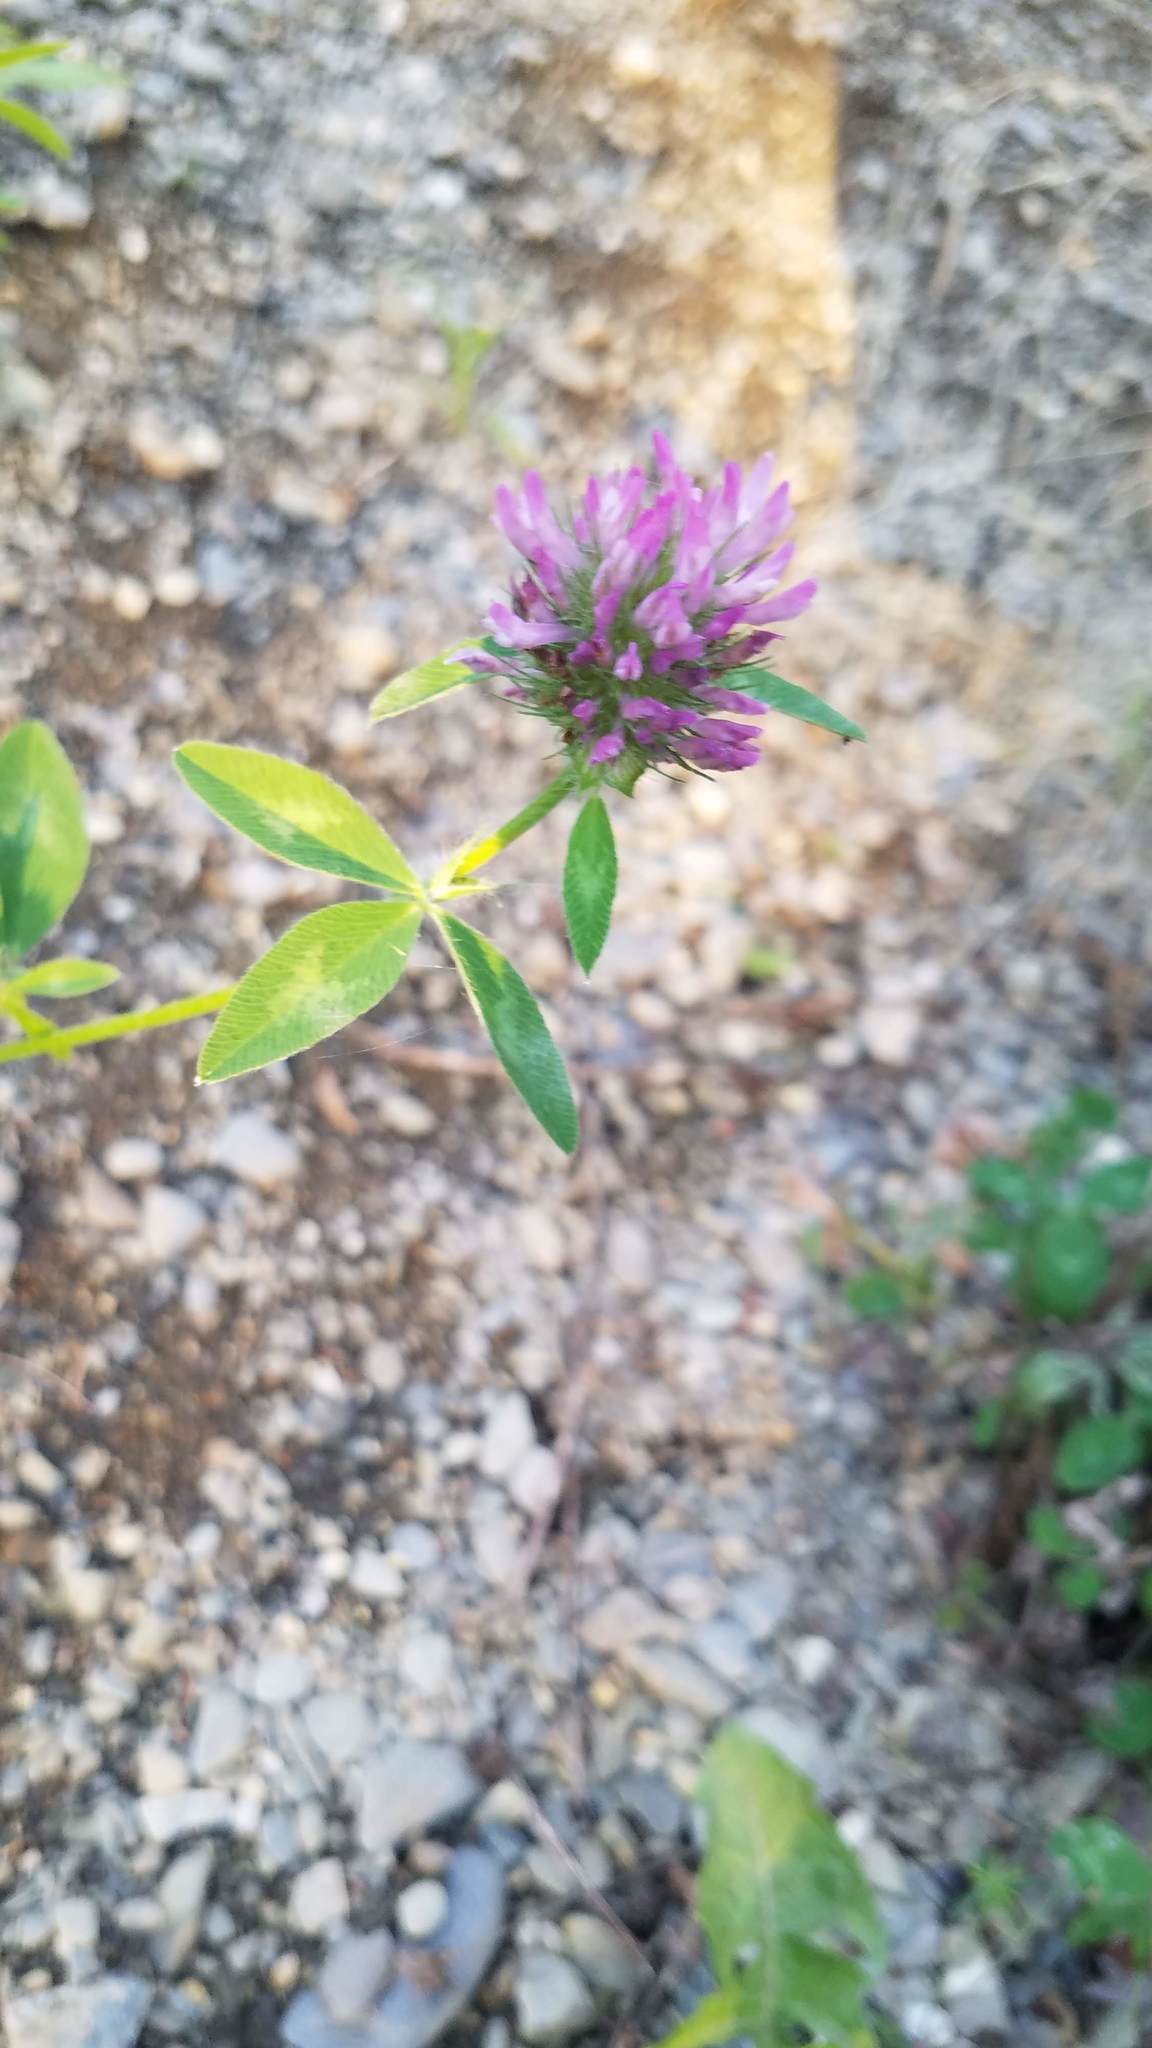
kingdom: Plantae
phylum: Tracheophyta
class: Magnoliopsida
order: Fabales
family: Fabaceae
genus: Trifolium
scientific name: Trifolium pratense
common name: Red clover
